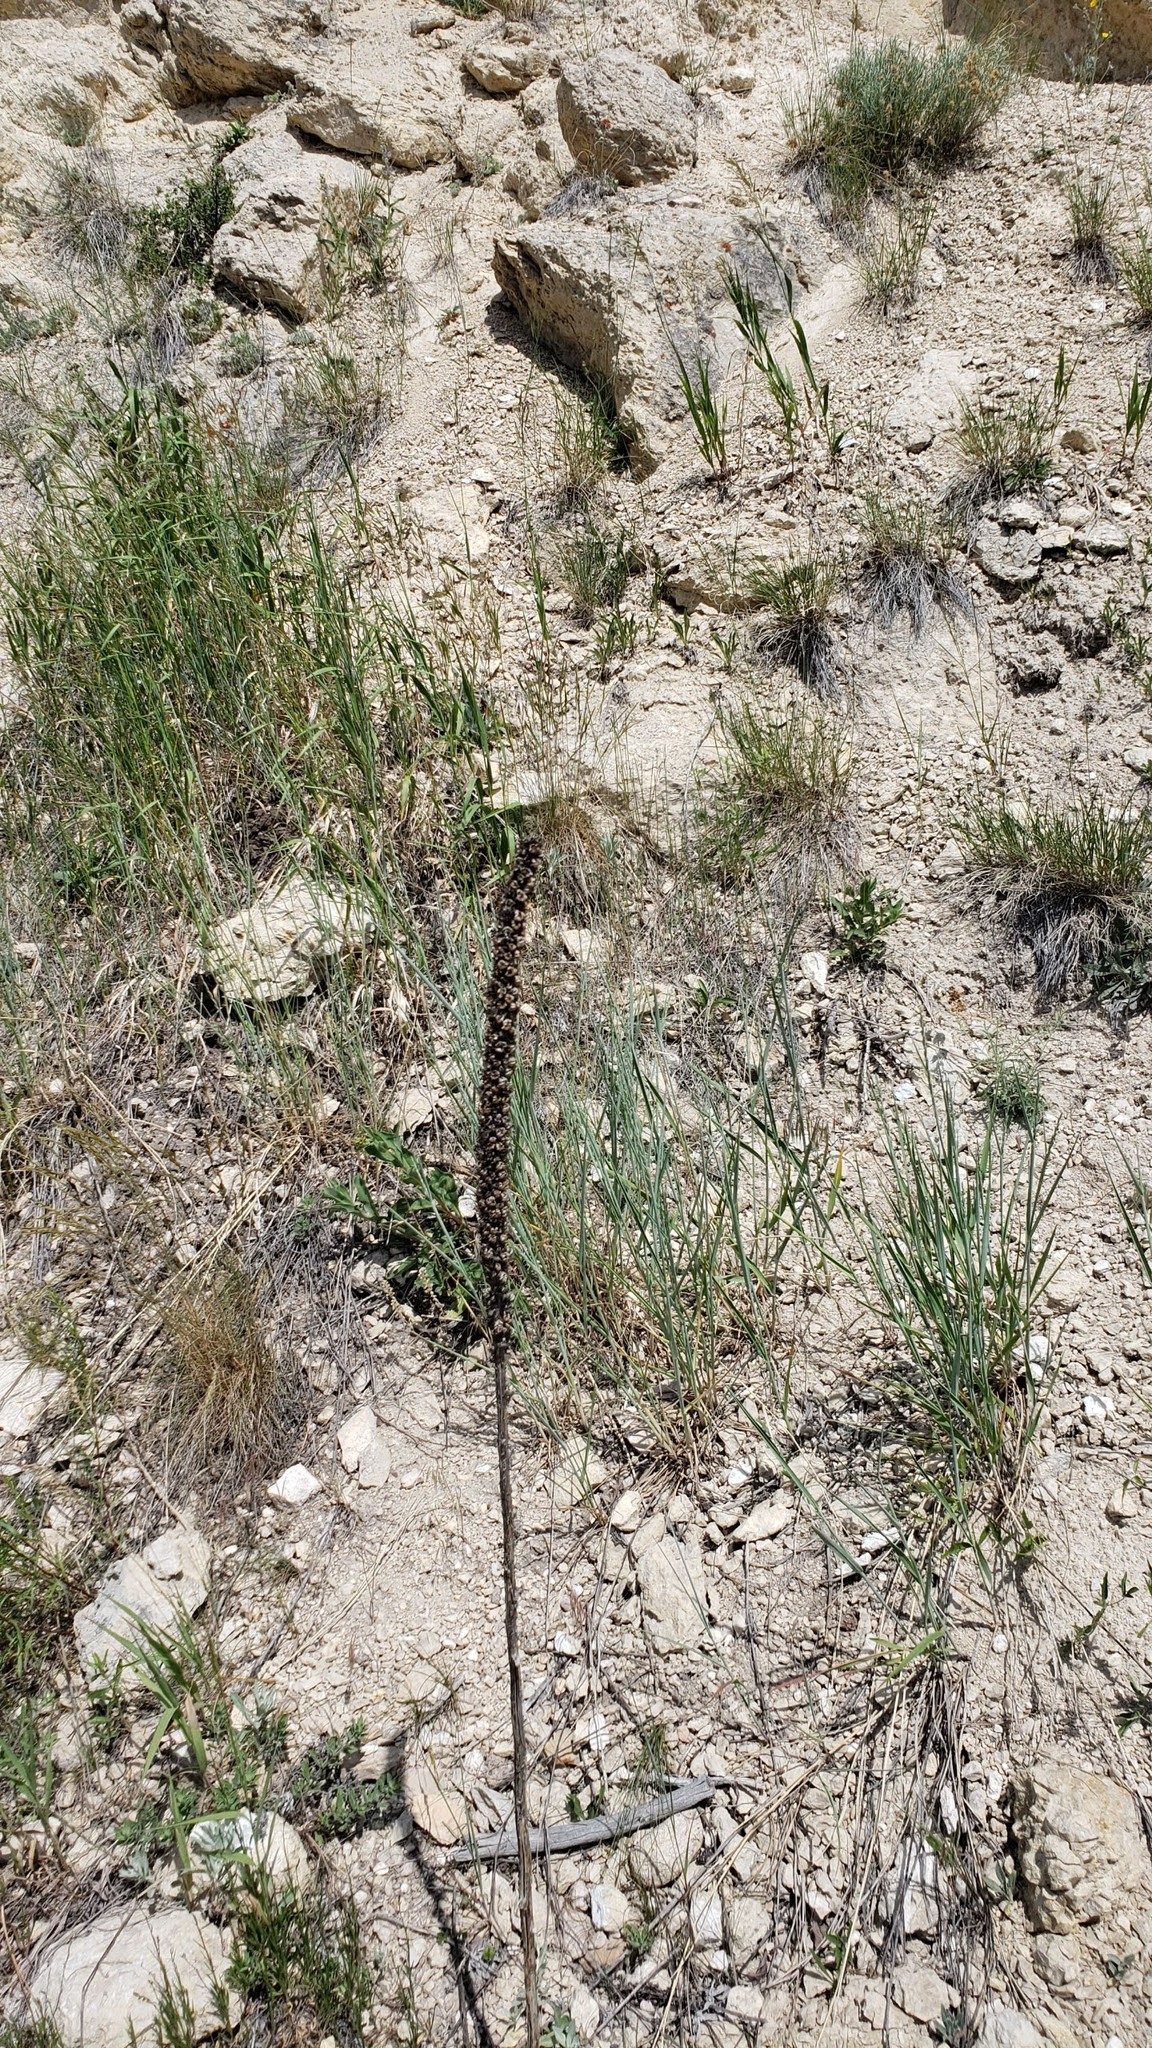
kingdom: Plantae
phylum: Tracheophyta
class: Magnoliopsida
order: Lamiales
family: Scrophulariaceae
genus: Verbascum
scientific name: Verbascum thapsus
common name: Common mullein
